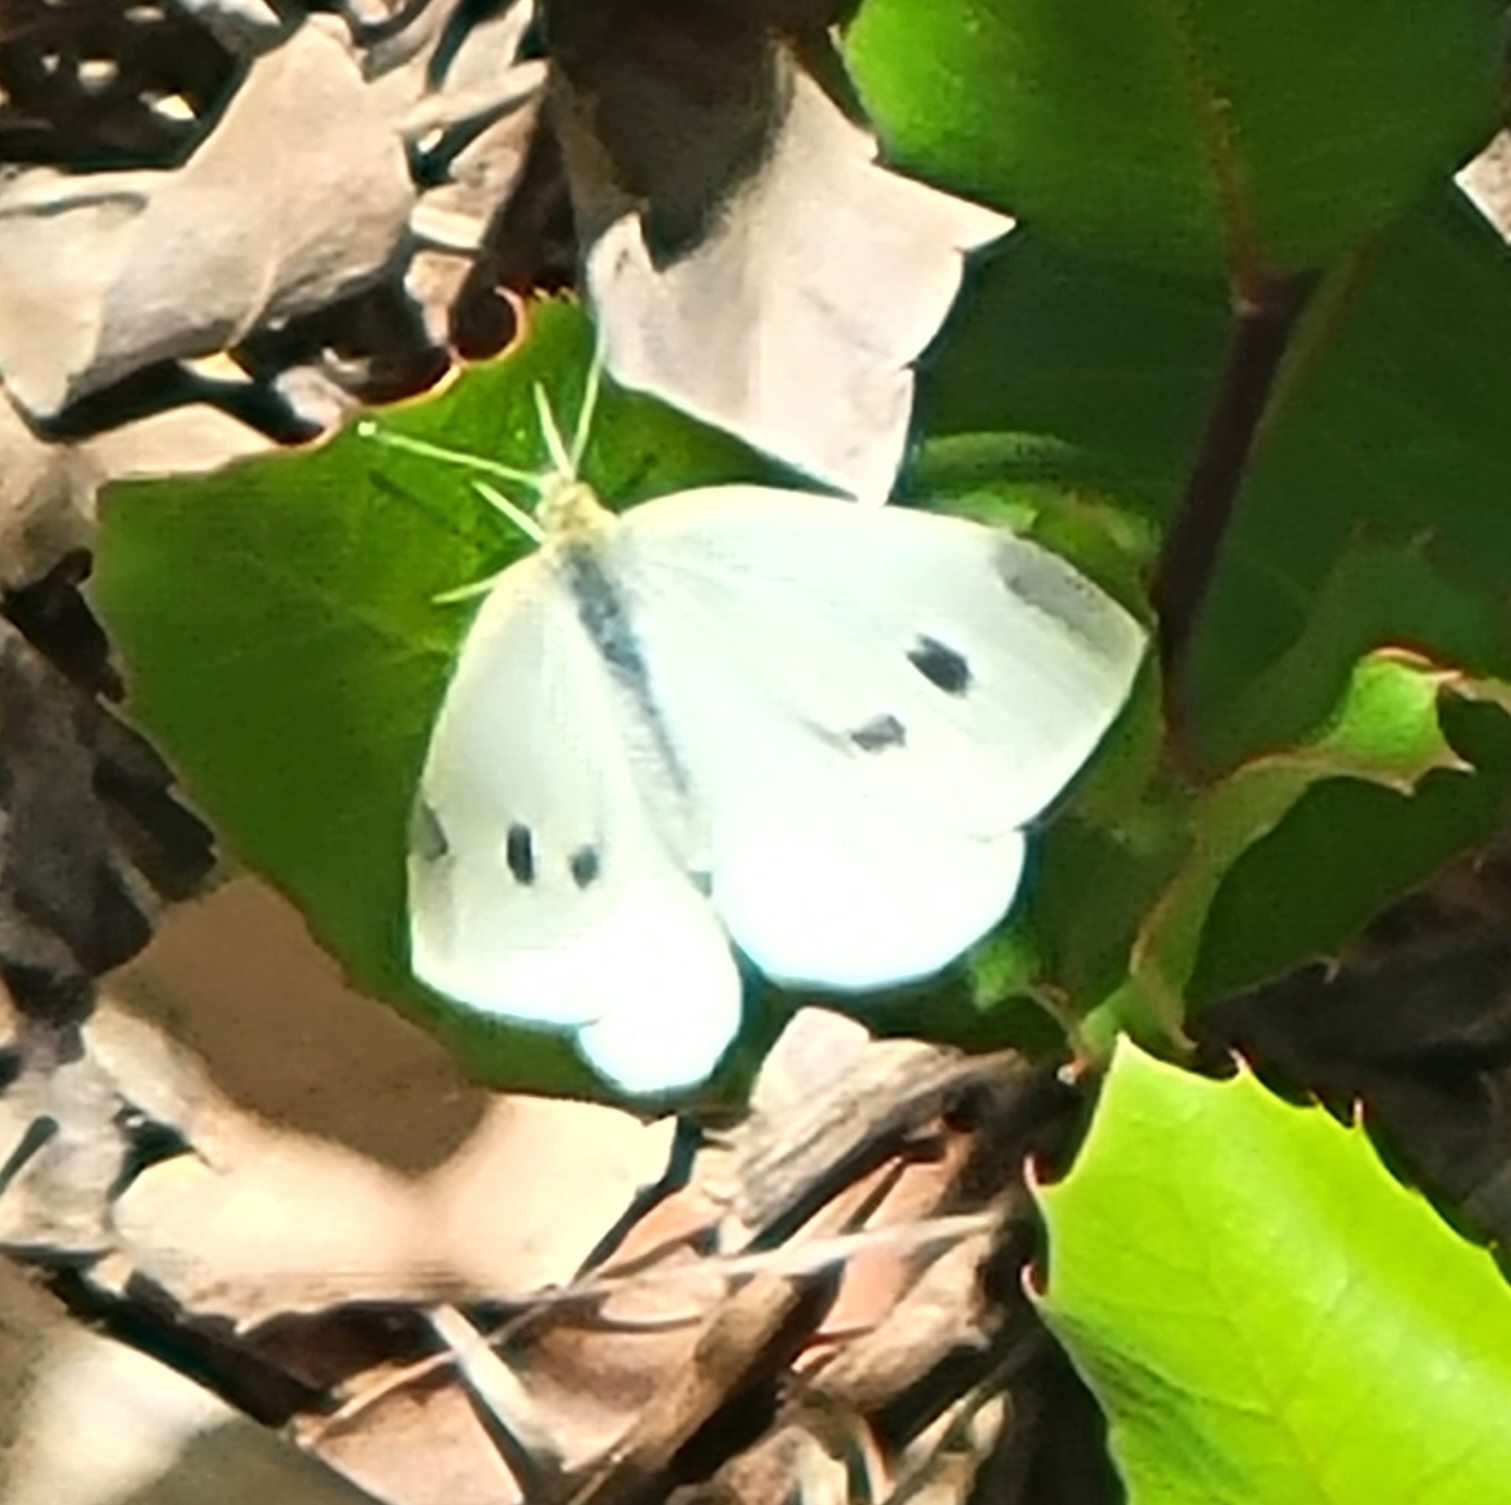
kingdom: Animalia
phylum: Arthropoda
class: Insecta
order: Lepidoptera
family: Pieridae
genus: Pieris
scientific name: Pieris rapae
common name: Small white
